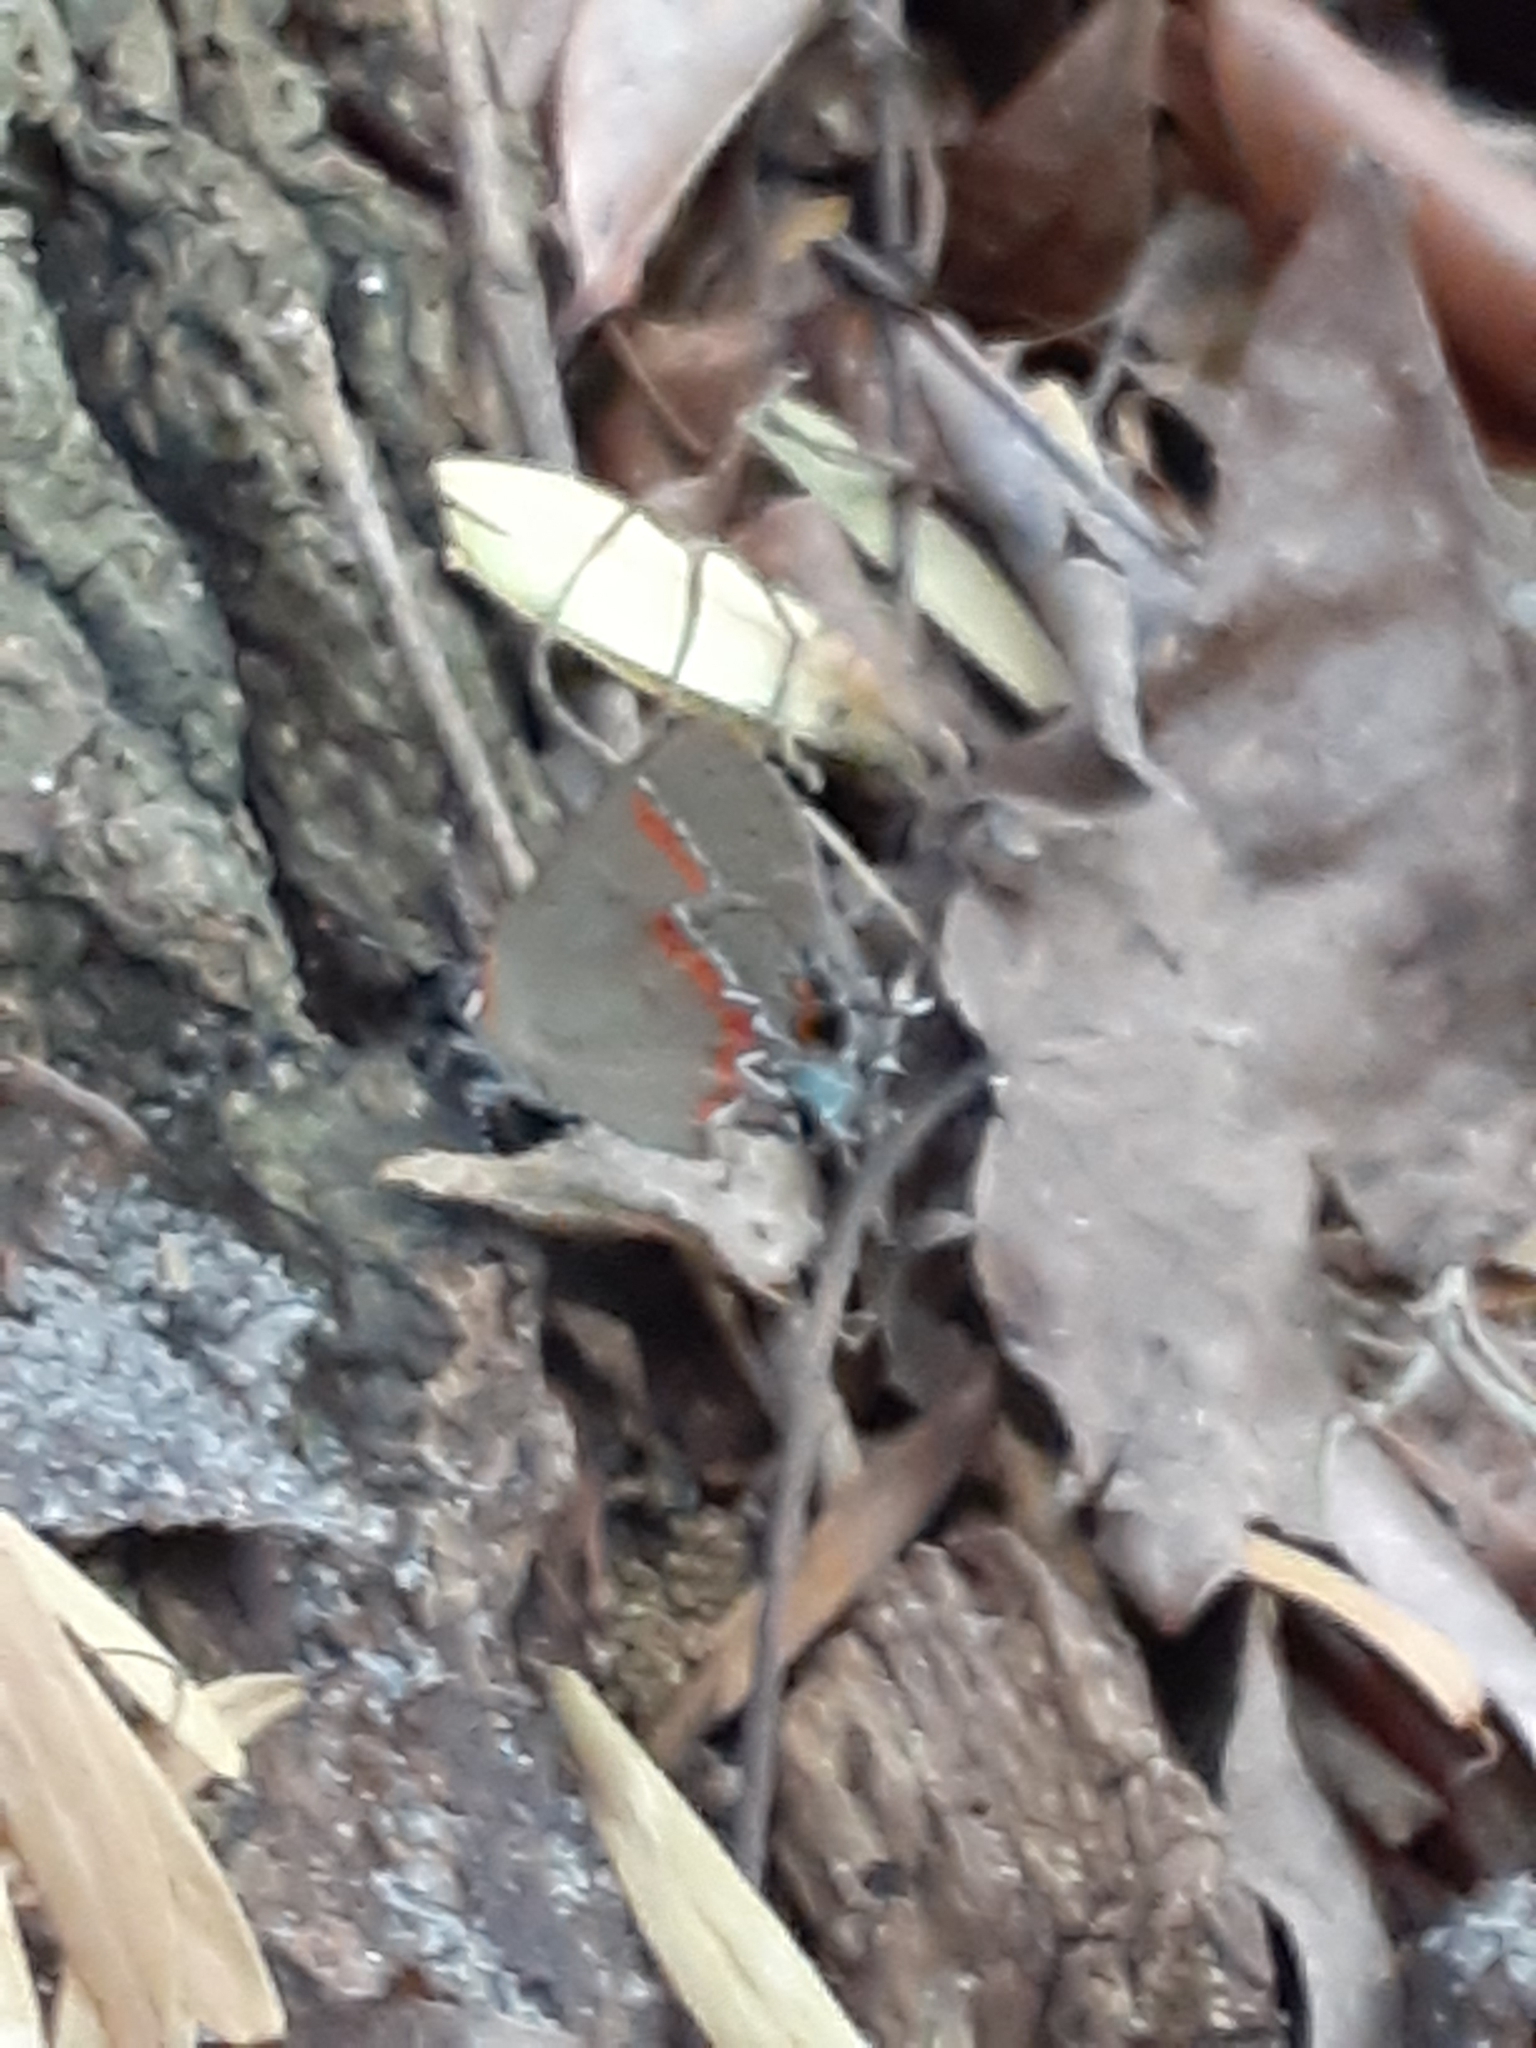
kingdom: Animalia
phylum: Arthropoda
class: Insecta
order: Lepidoptera
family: Lycaenidae
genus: Calycopis
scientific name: Calycopis cecrops
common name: Red-banded hairstreak
